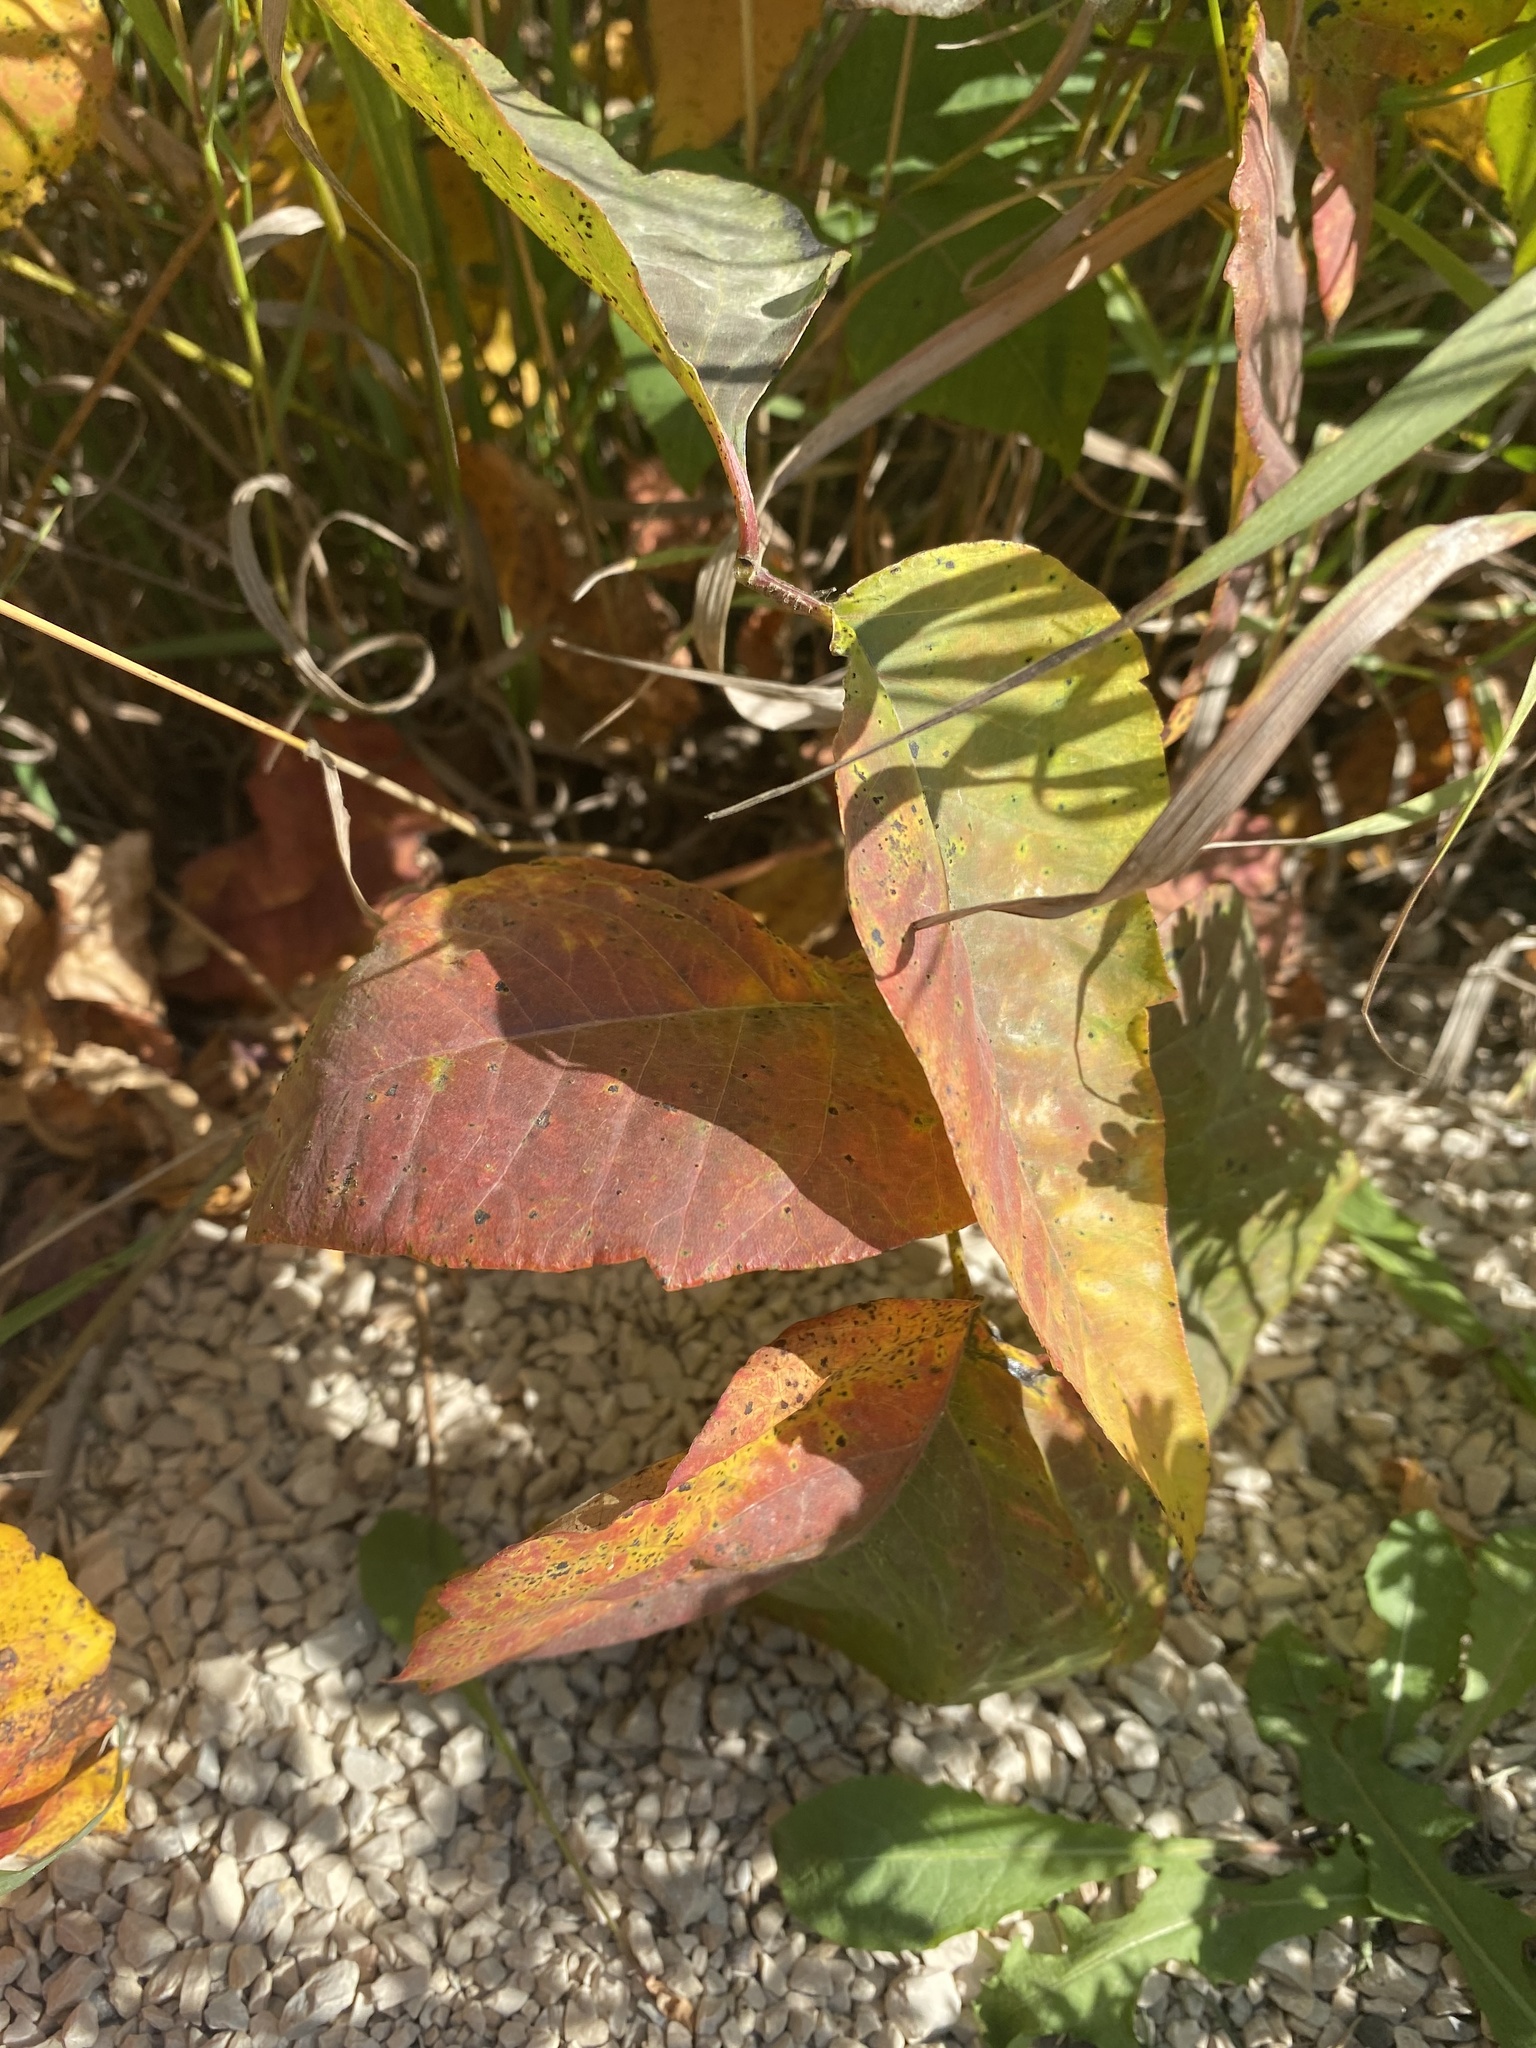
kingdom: Plantae
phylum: Tracheophyta
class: Magnoliopsida
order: Sapindales
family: Anacardiaceae
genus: Toxicodendron
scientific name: Toxicodendron rydbergii
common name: Rydberg's poison-ivy
